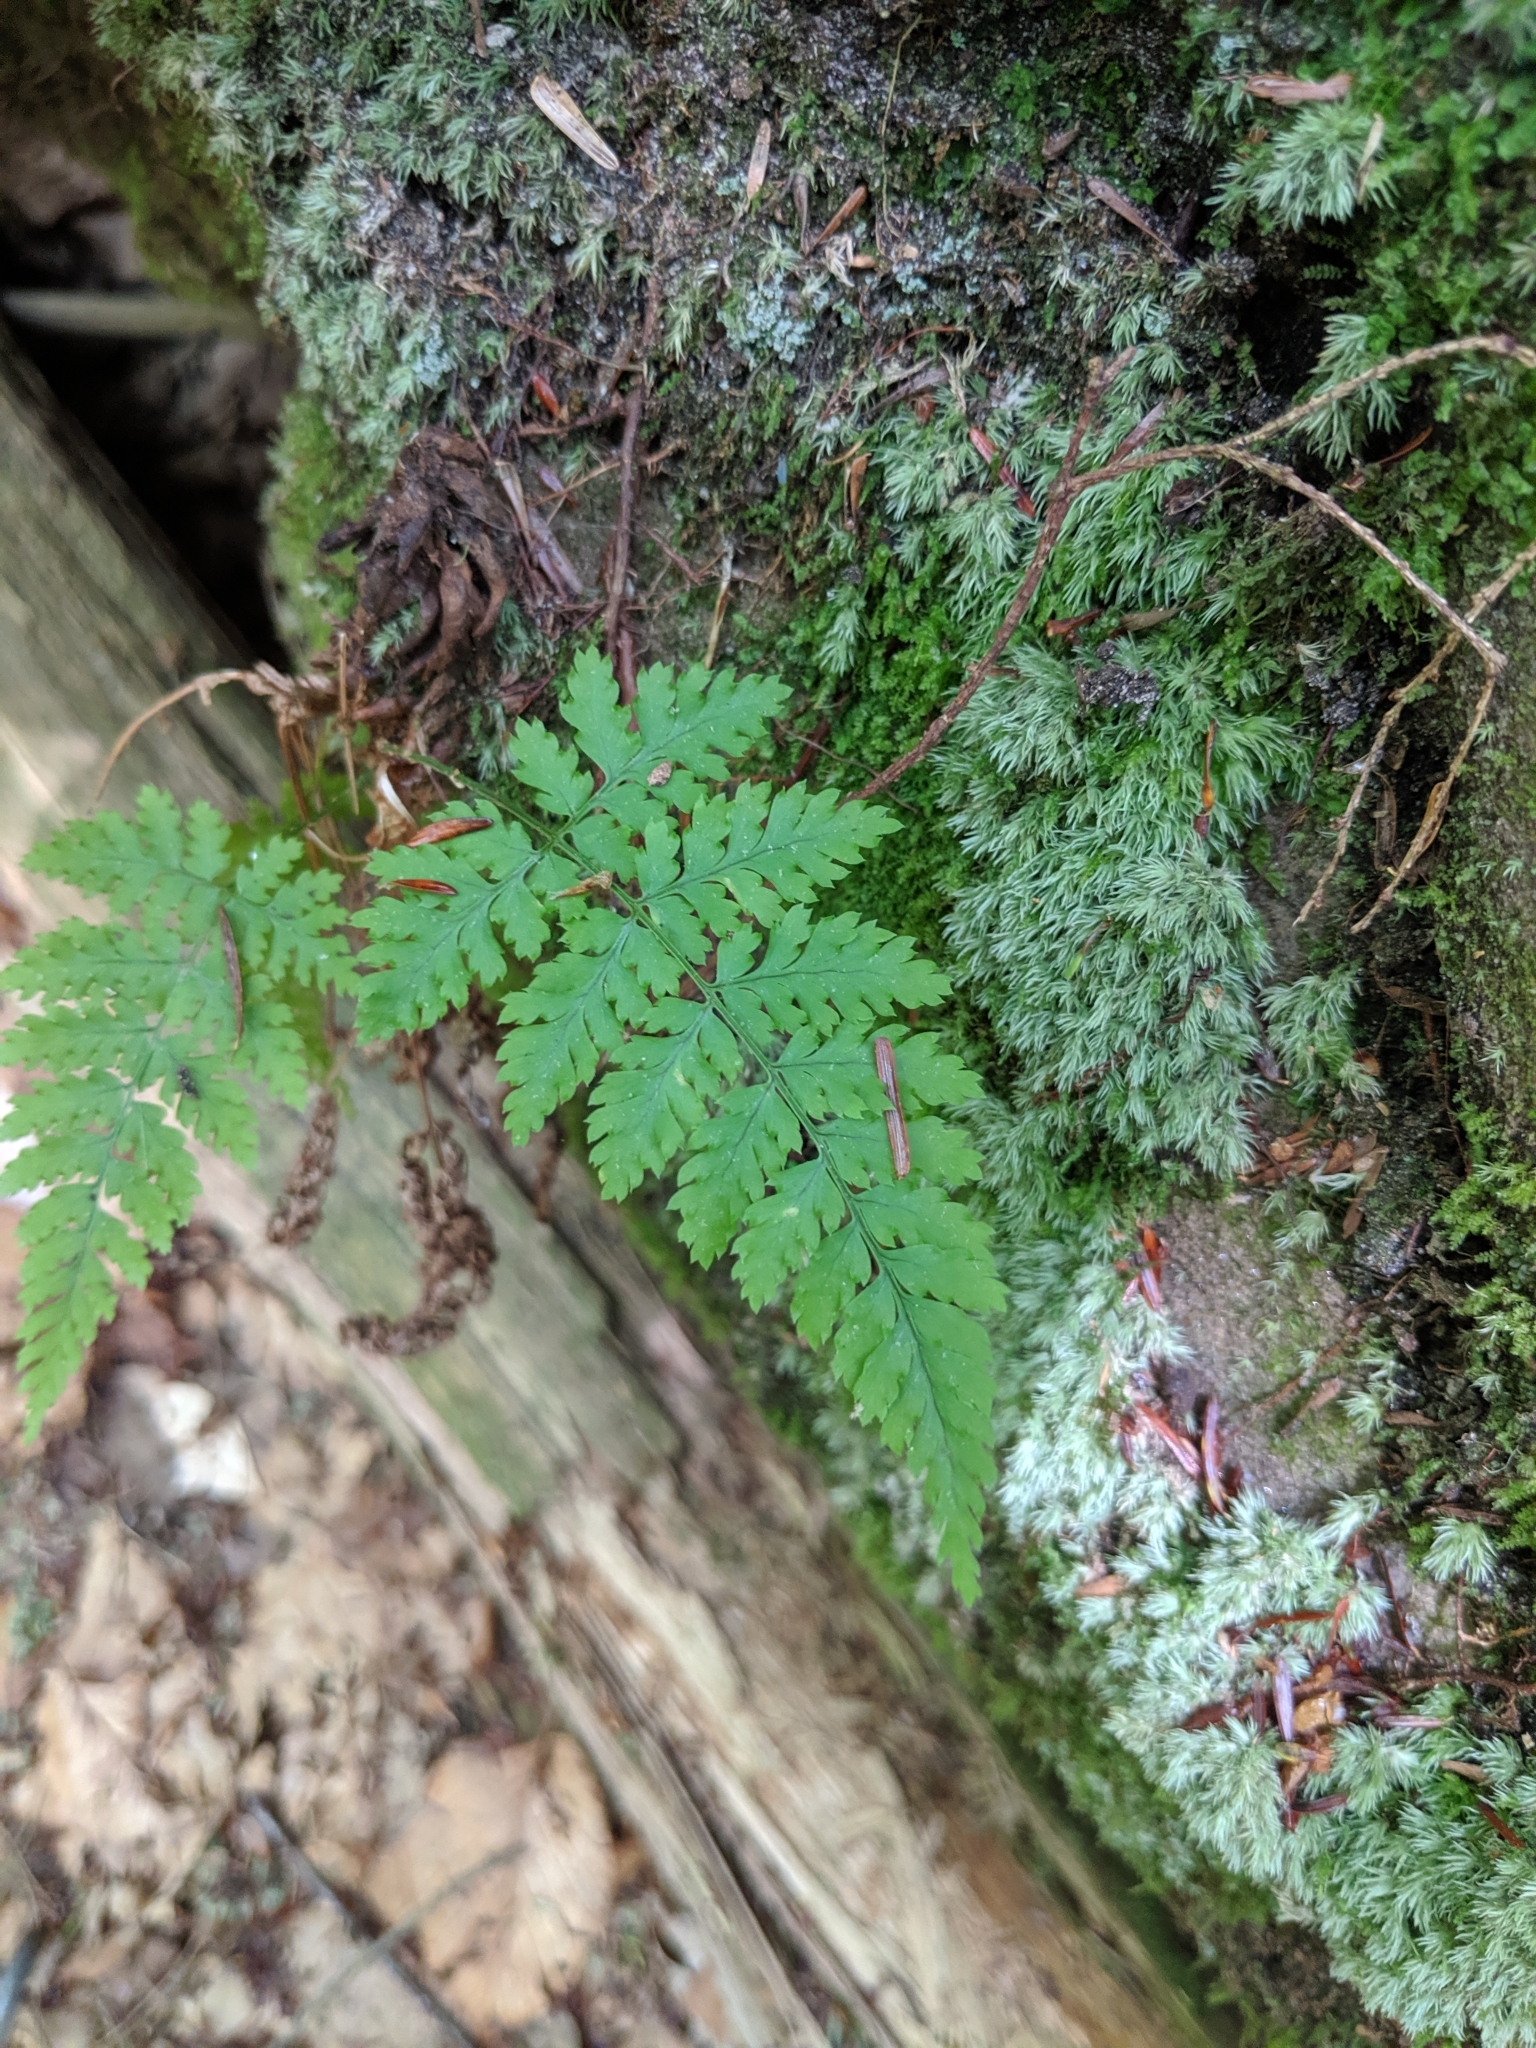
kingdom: Plantae
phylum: Tracheophyta
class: Polypodiopsida
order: Polypodiales
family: Dryopteridaceae
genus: Dryopteris
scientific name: Dryopteris intermedia
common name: Evergreen wood fern
